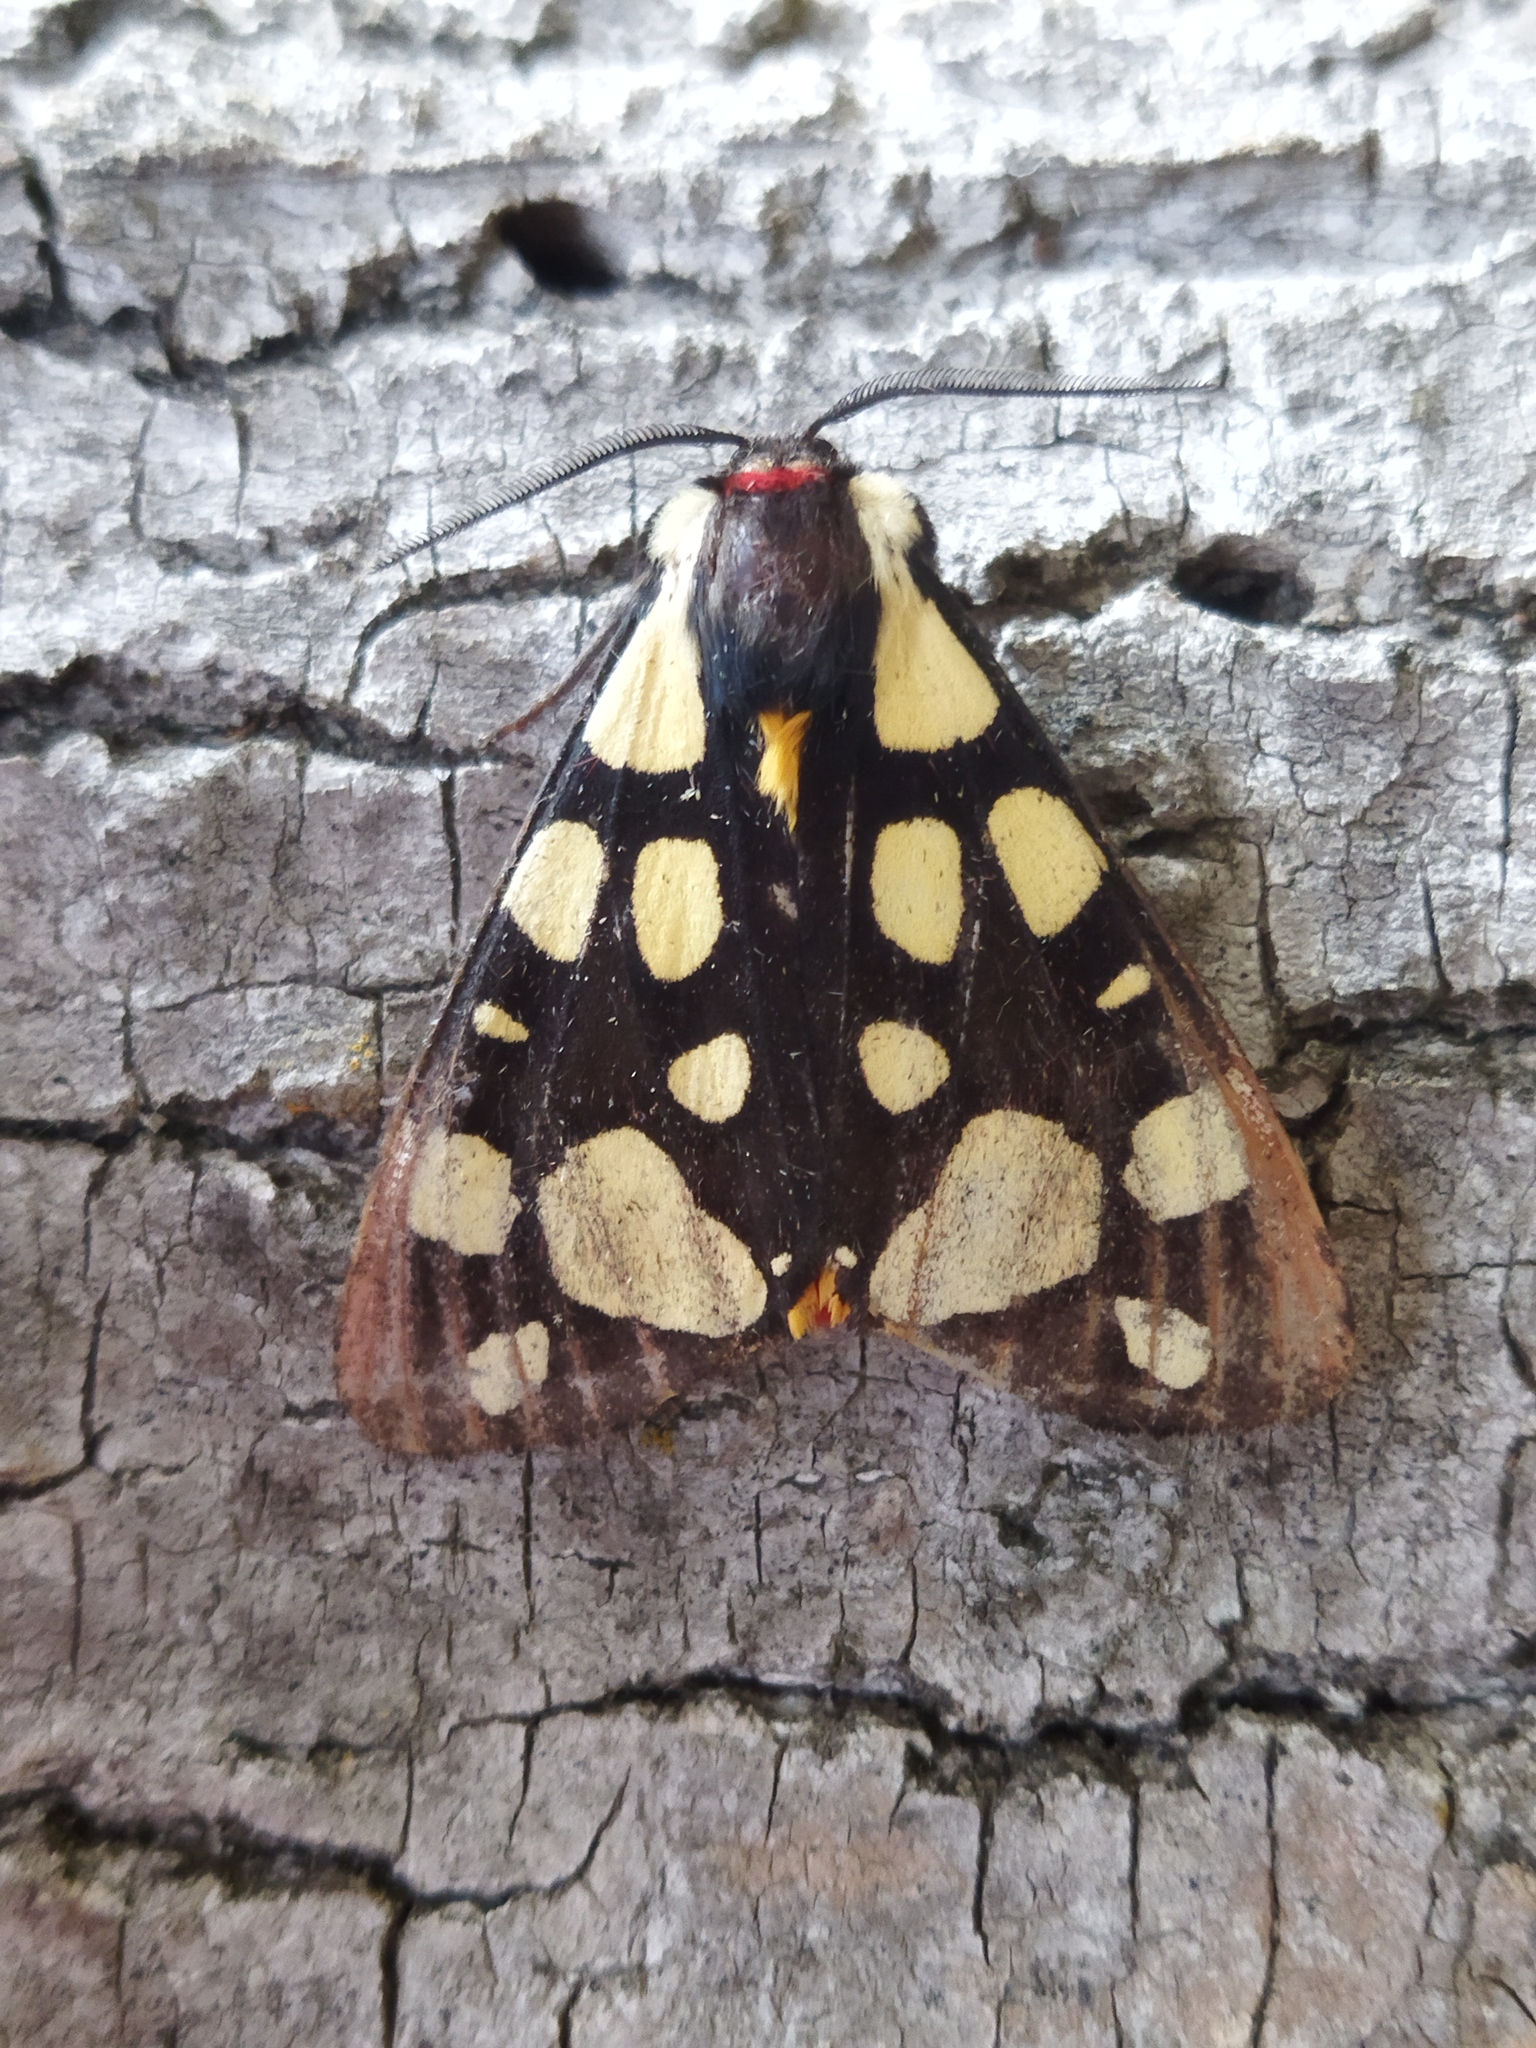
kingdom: Animalia
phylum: Arthropoda
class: Insecta
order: Lepidoptera
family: Erebidae
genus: Epicallia
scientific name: Epicallia villica
